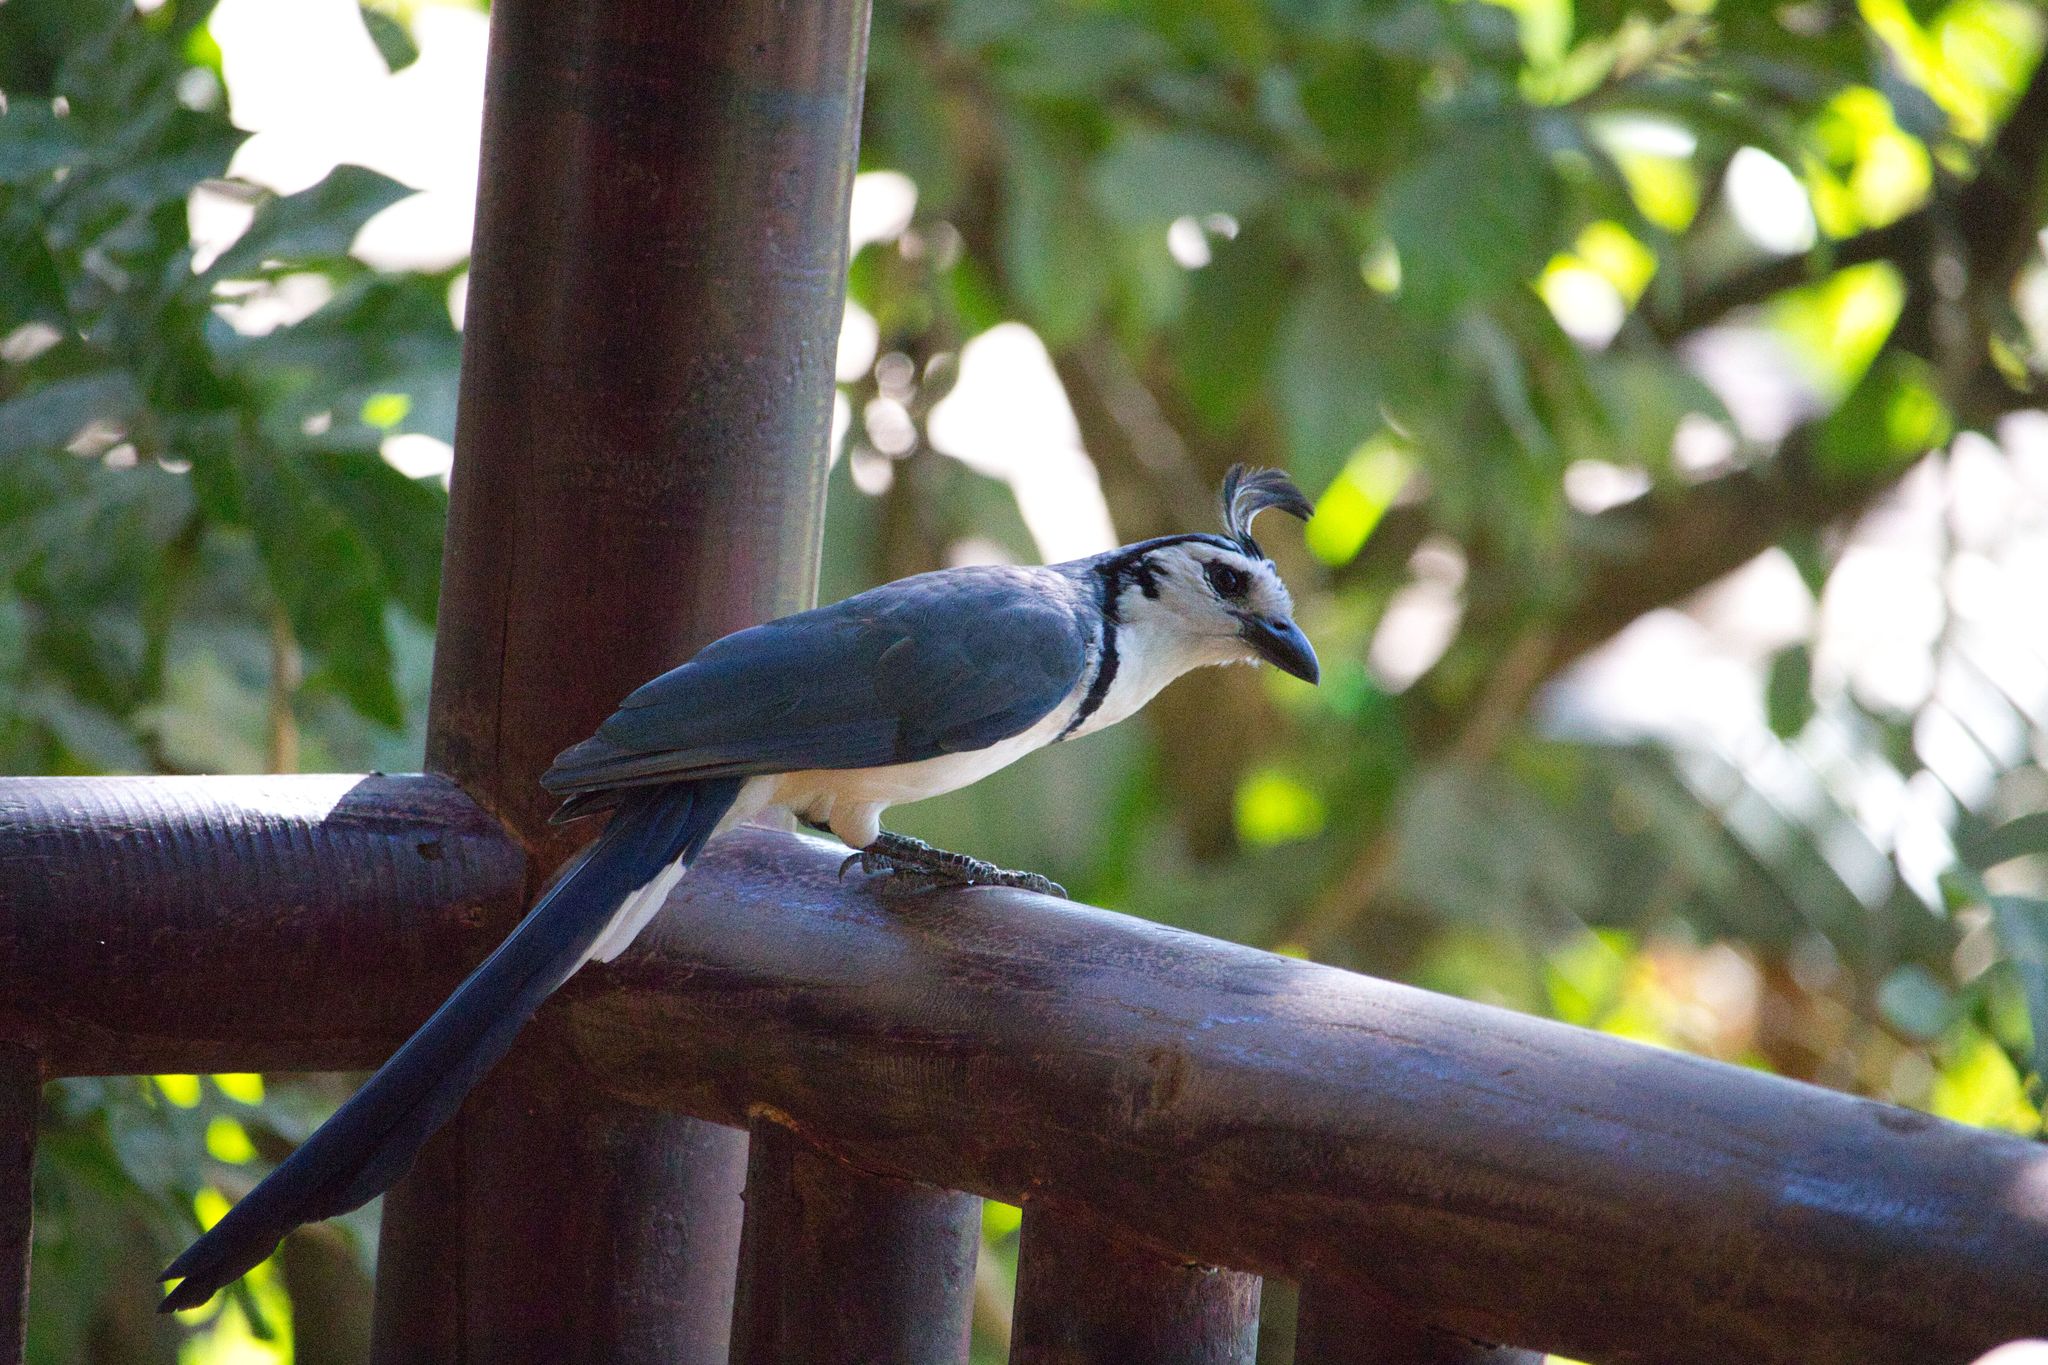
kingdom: Animalia
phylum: Chordata
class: Aves
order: Passeriformes
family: Corvidae
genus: Calocitta
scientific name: Calocitta formosa
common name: White-throated magpie-jay
